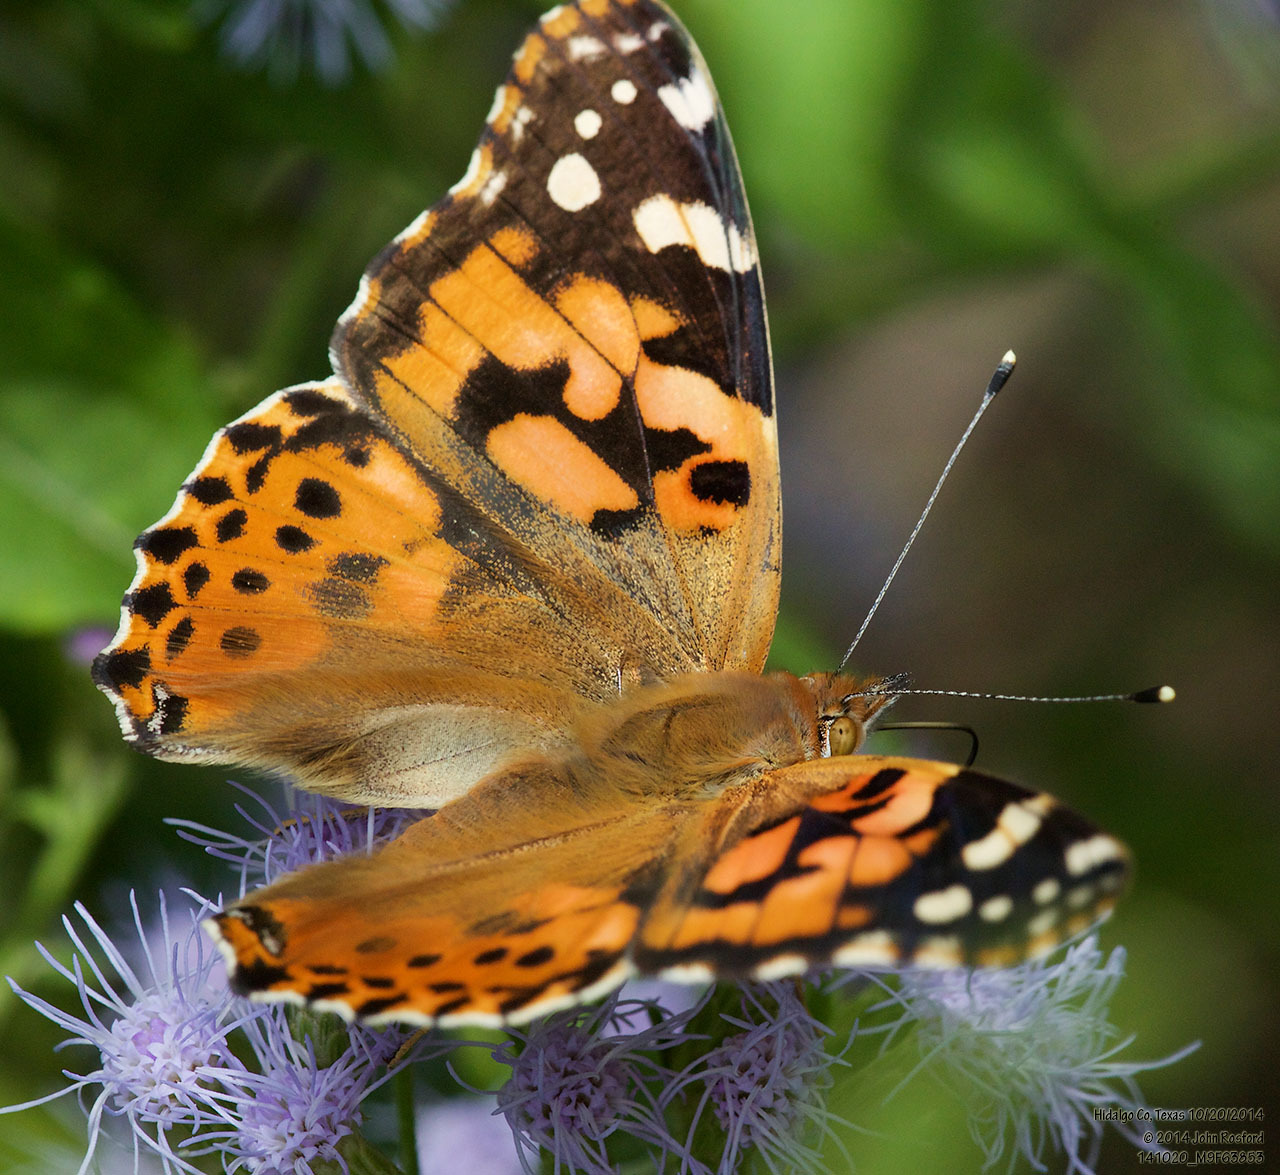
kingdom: Animalia
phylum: Arthropoda
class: Insecta
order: Lepidoptera
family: Nymphalidae
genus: Vanessa
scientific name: Vanessa cardui
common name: Painted lady
